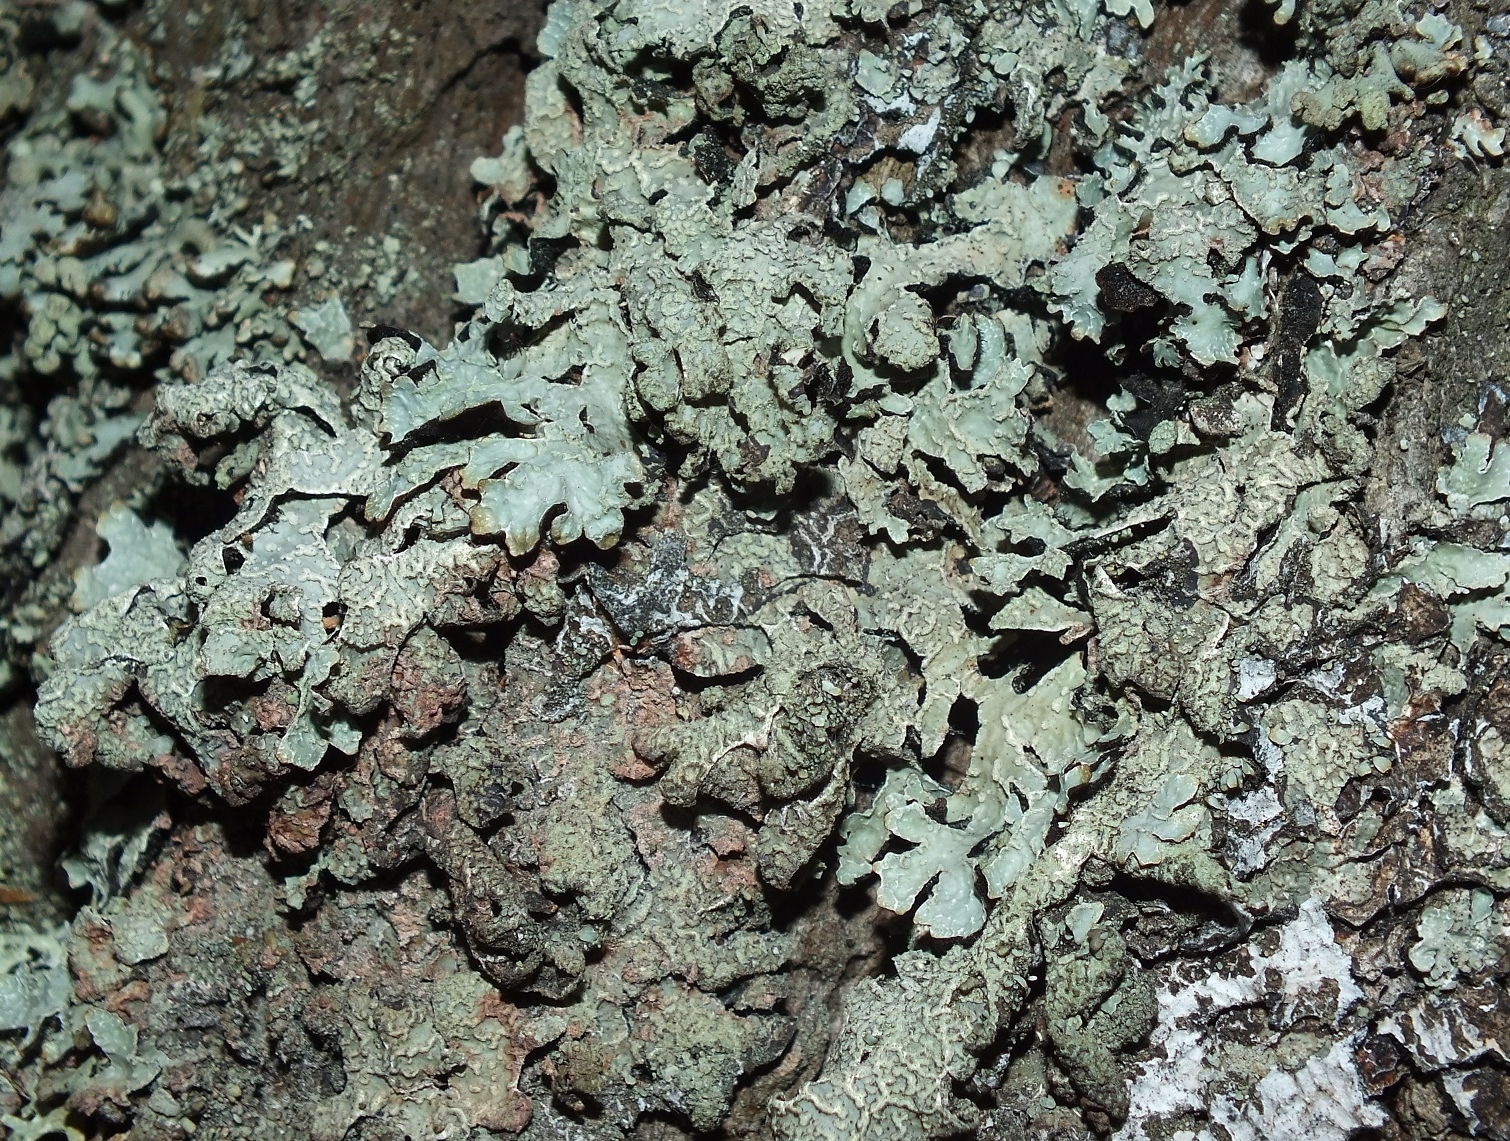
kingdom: Fungi
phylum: Ascomycota
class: Lecanoromycetes
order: Lecanorales
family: Parmeliaceae
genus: Parmelia
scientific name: Parmelia sulcata
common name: Netted shield lichen
